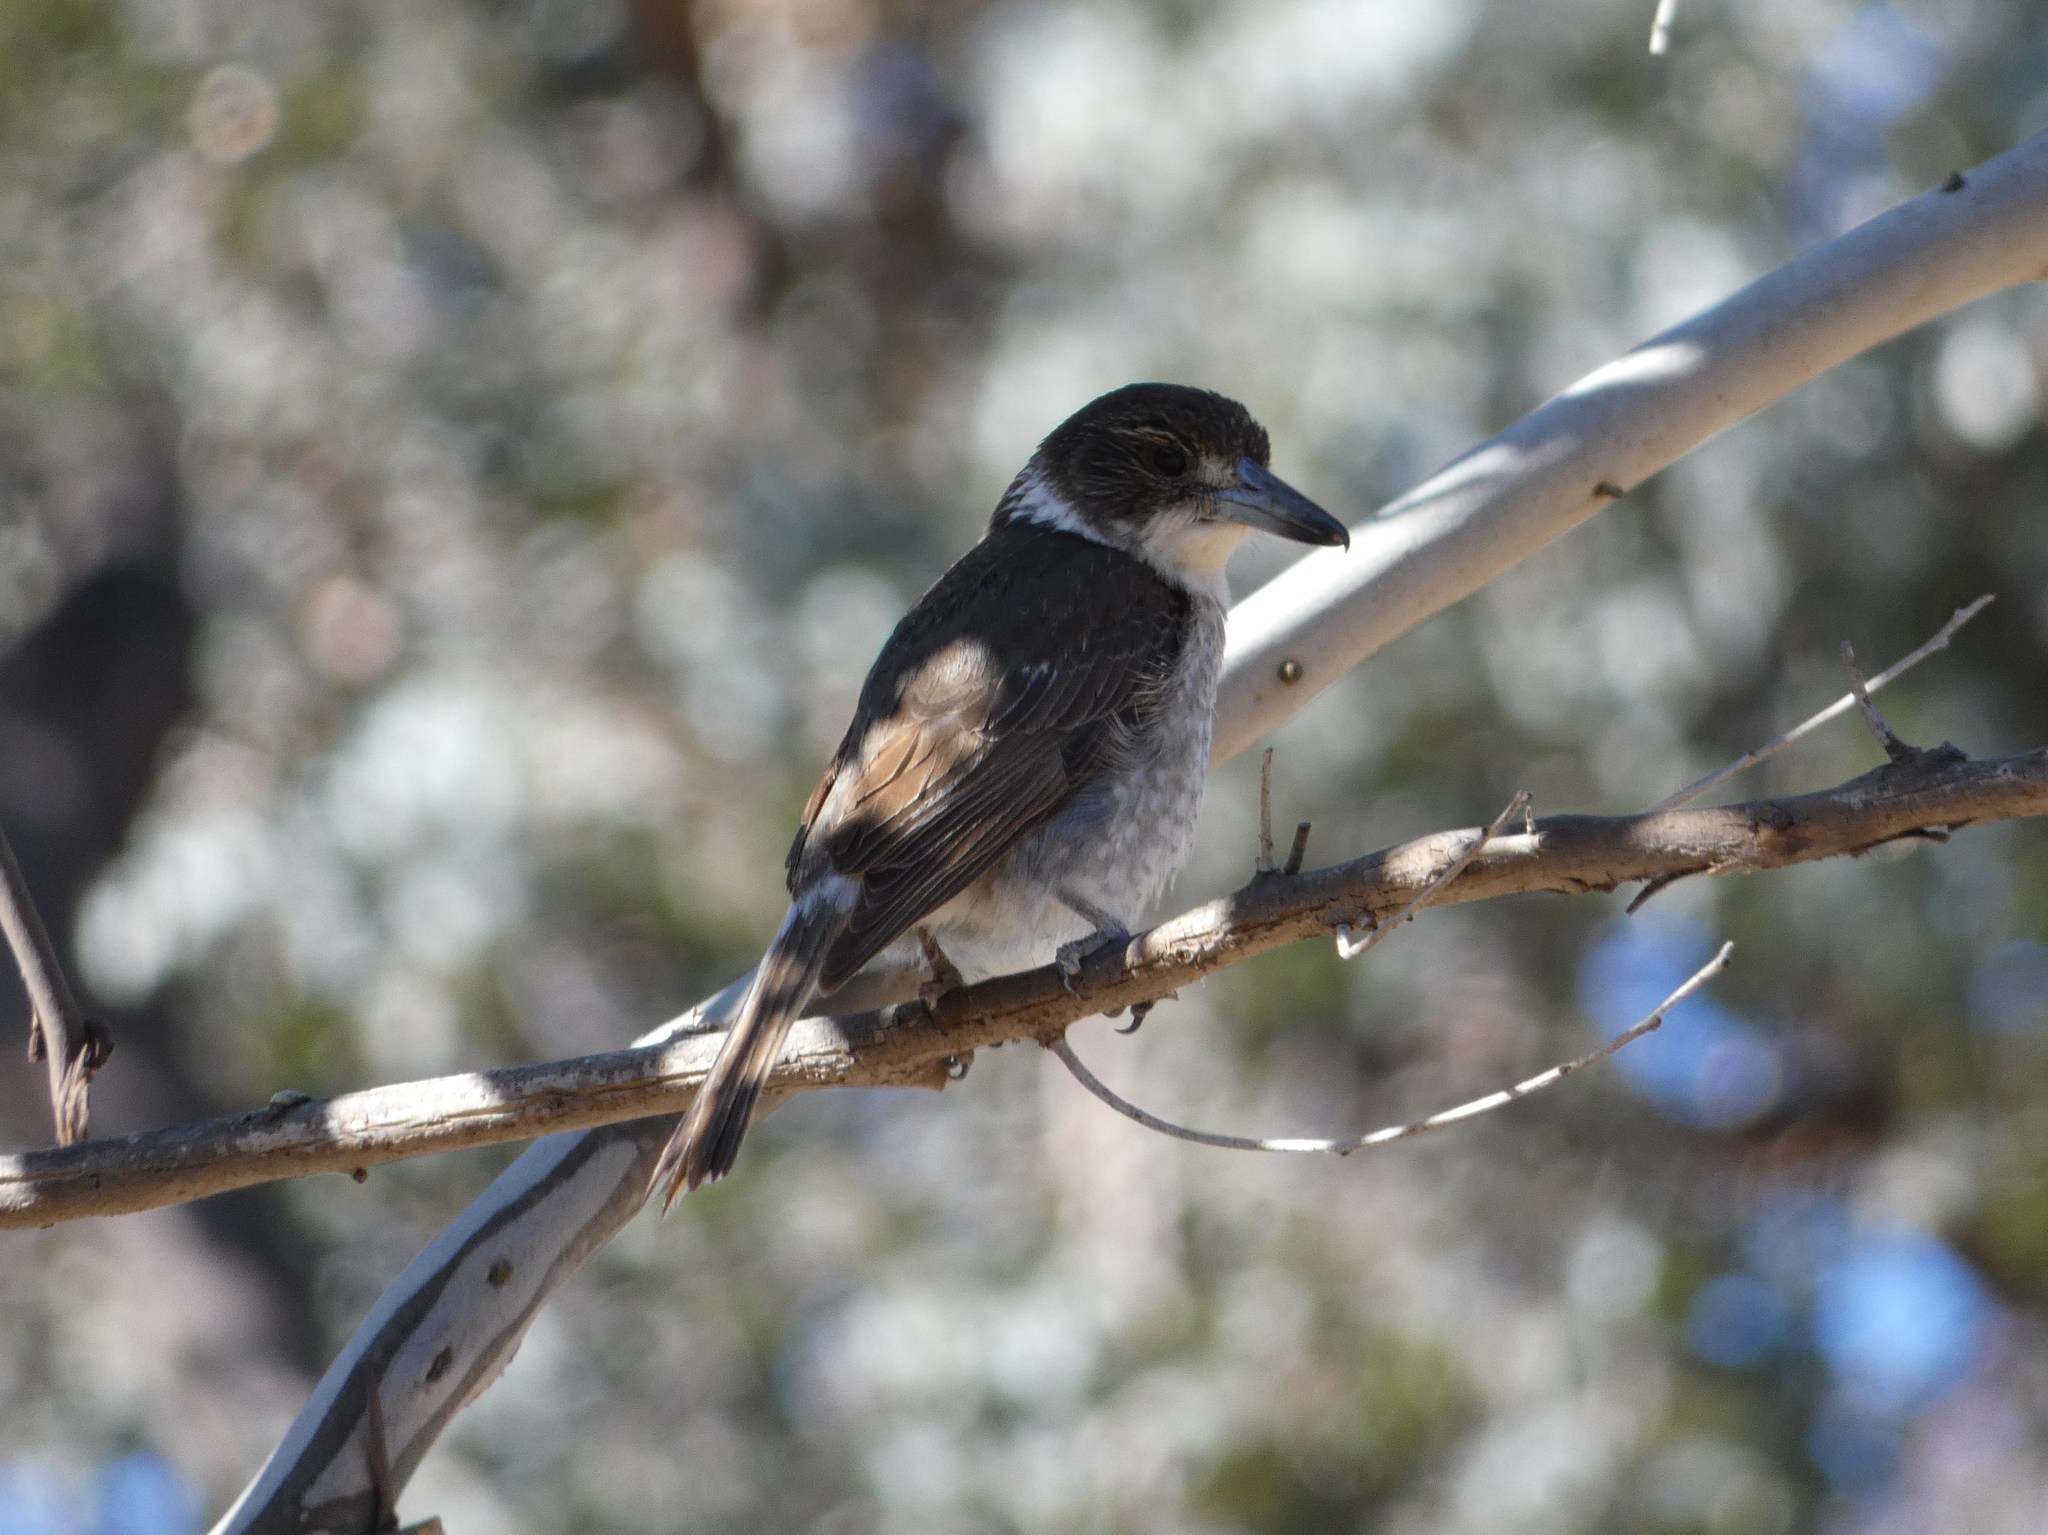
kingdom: Animalia
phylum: Chordata
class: Aves
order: Passeriformes
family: Cracticidae
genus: Cracticus
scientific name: Cracticus torquatus
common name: Grey butcherbird
